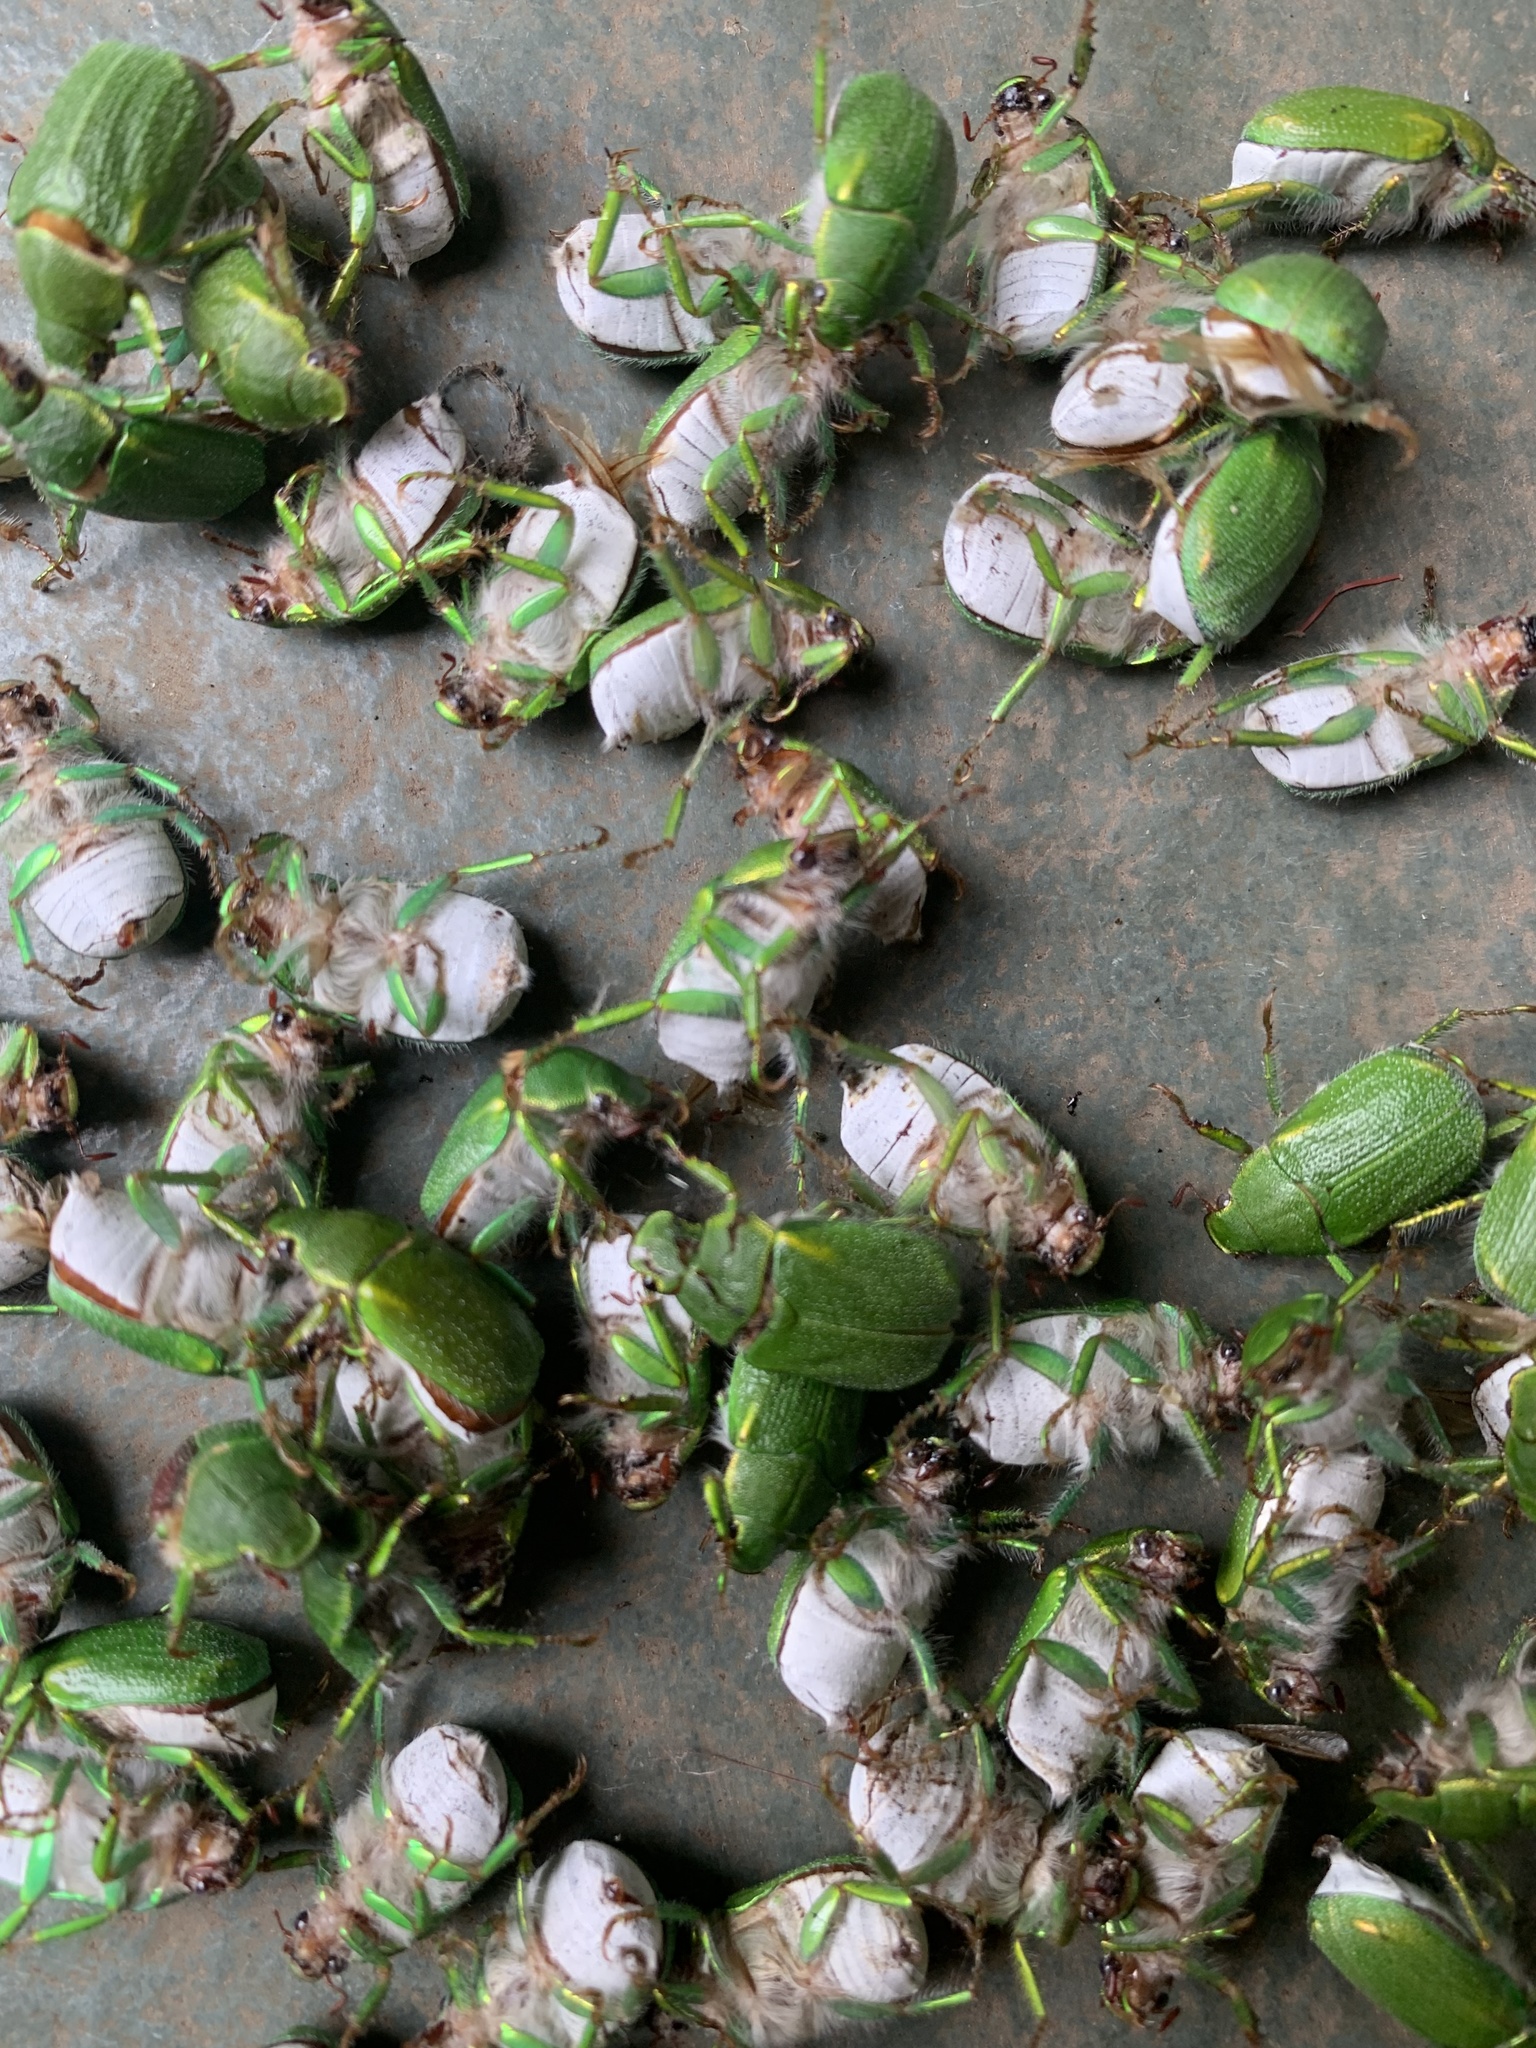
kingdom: Animalia
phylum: Arthropoda
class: Insecta
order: Coleoptera
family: Scarabaeidae
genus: Hylamorpha
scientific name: Hylamorpha elegans
